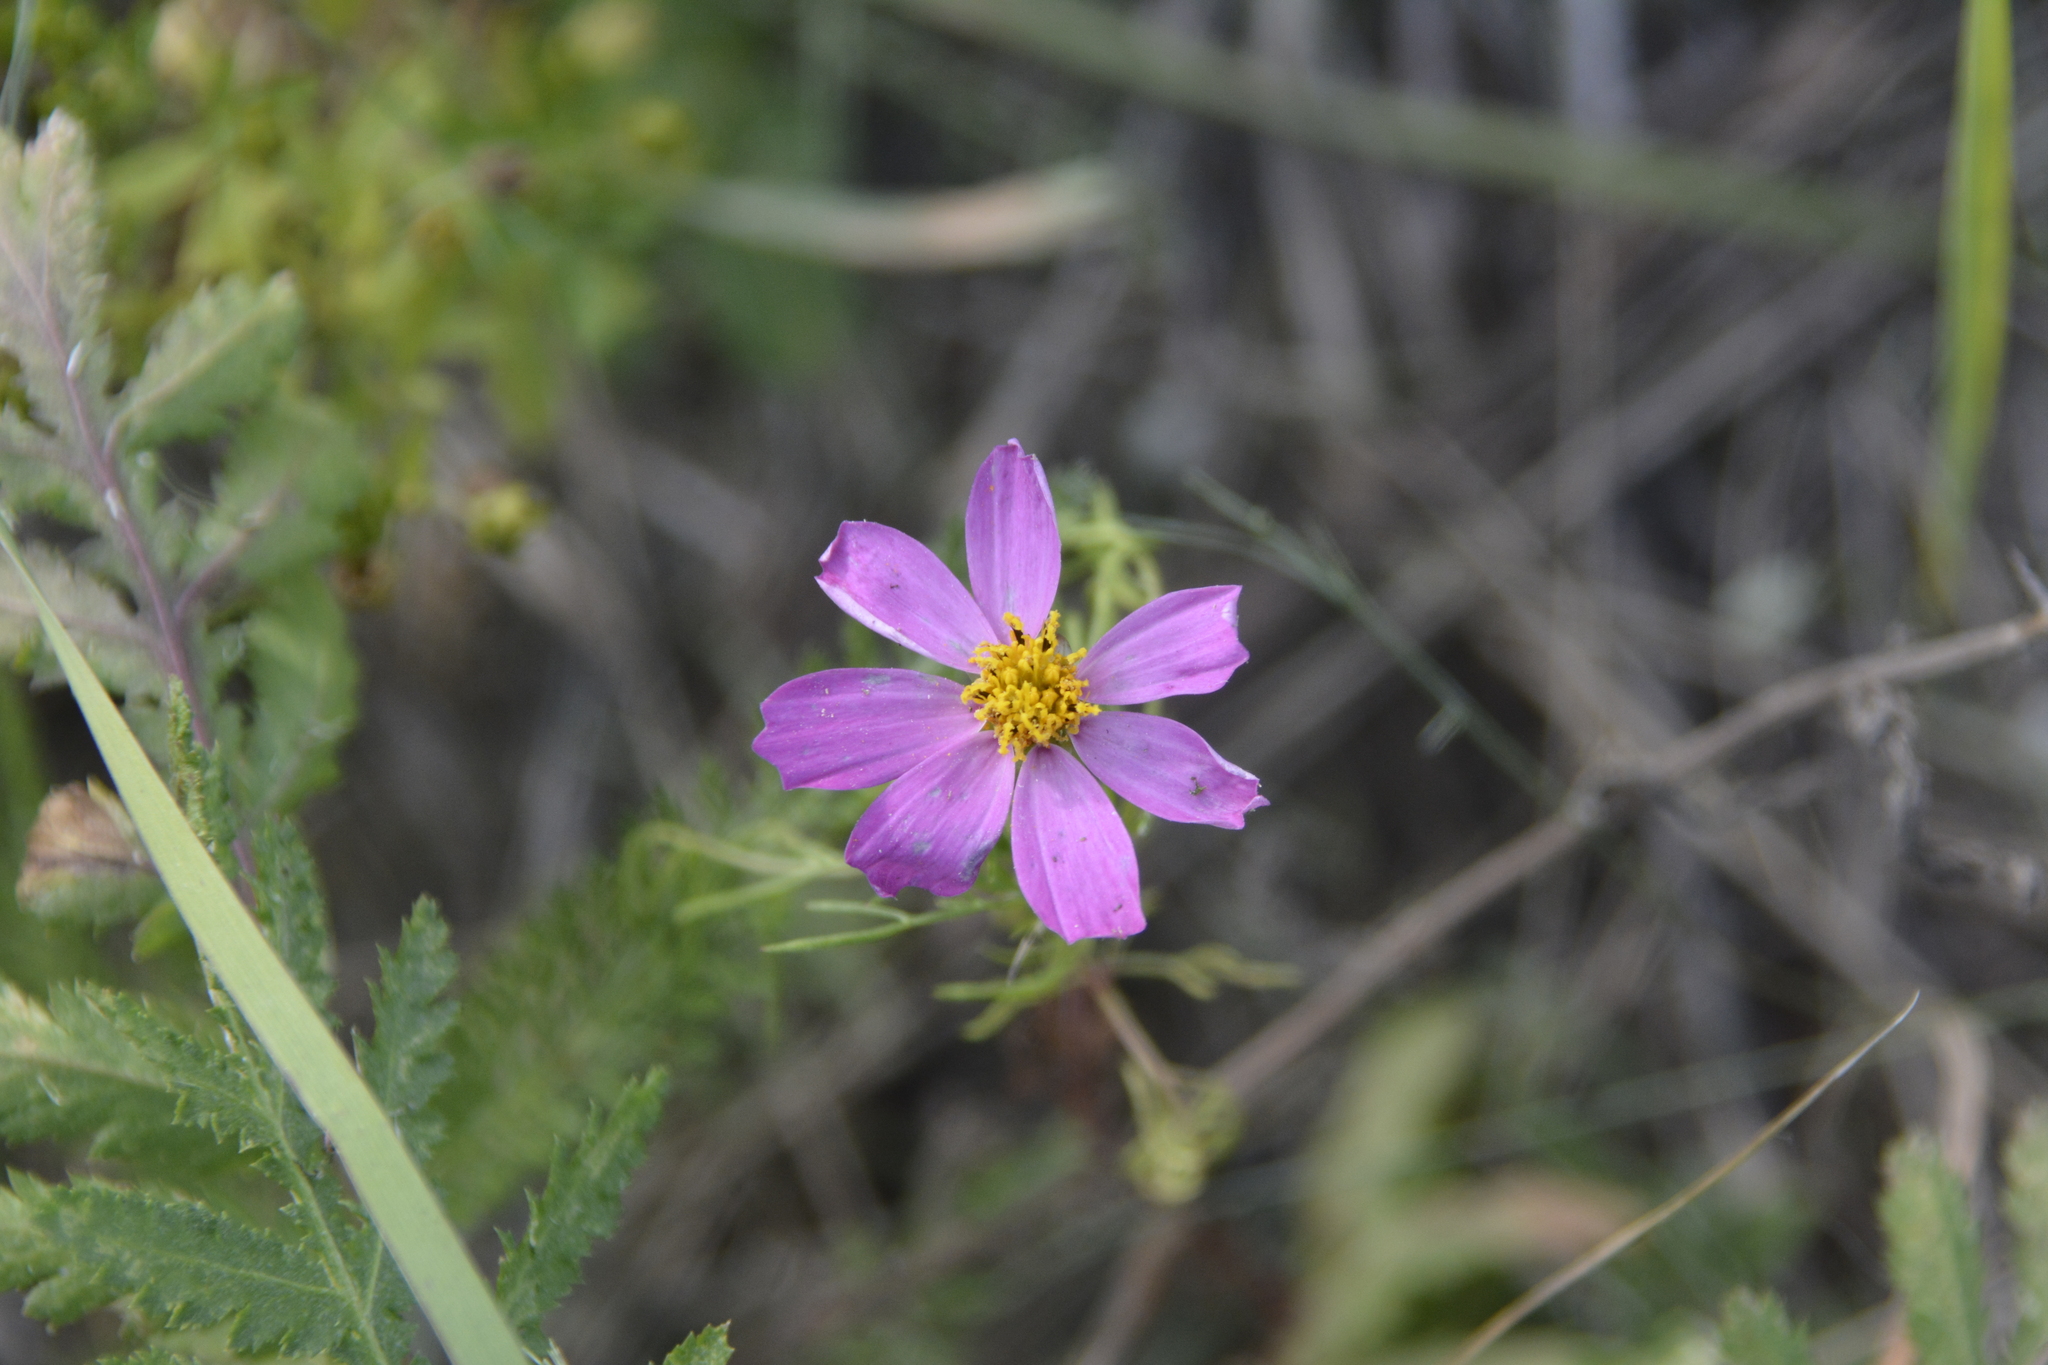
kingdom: Plantae
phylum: Tracheophyta
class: Magnoliopsida
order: Asterales
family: Asteraceae
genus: Cosmos
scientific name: Cosmos bipinnatus
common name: Garden cosmos
